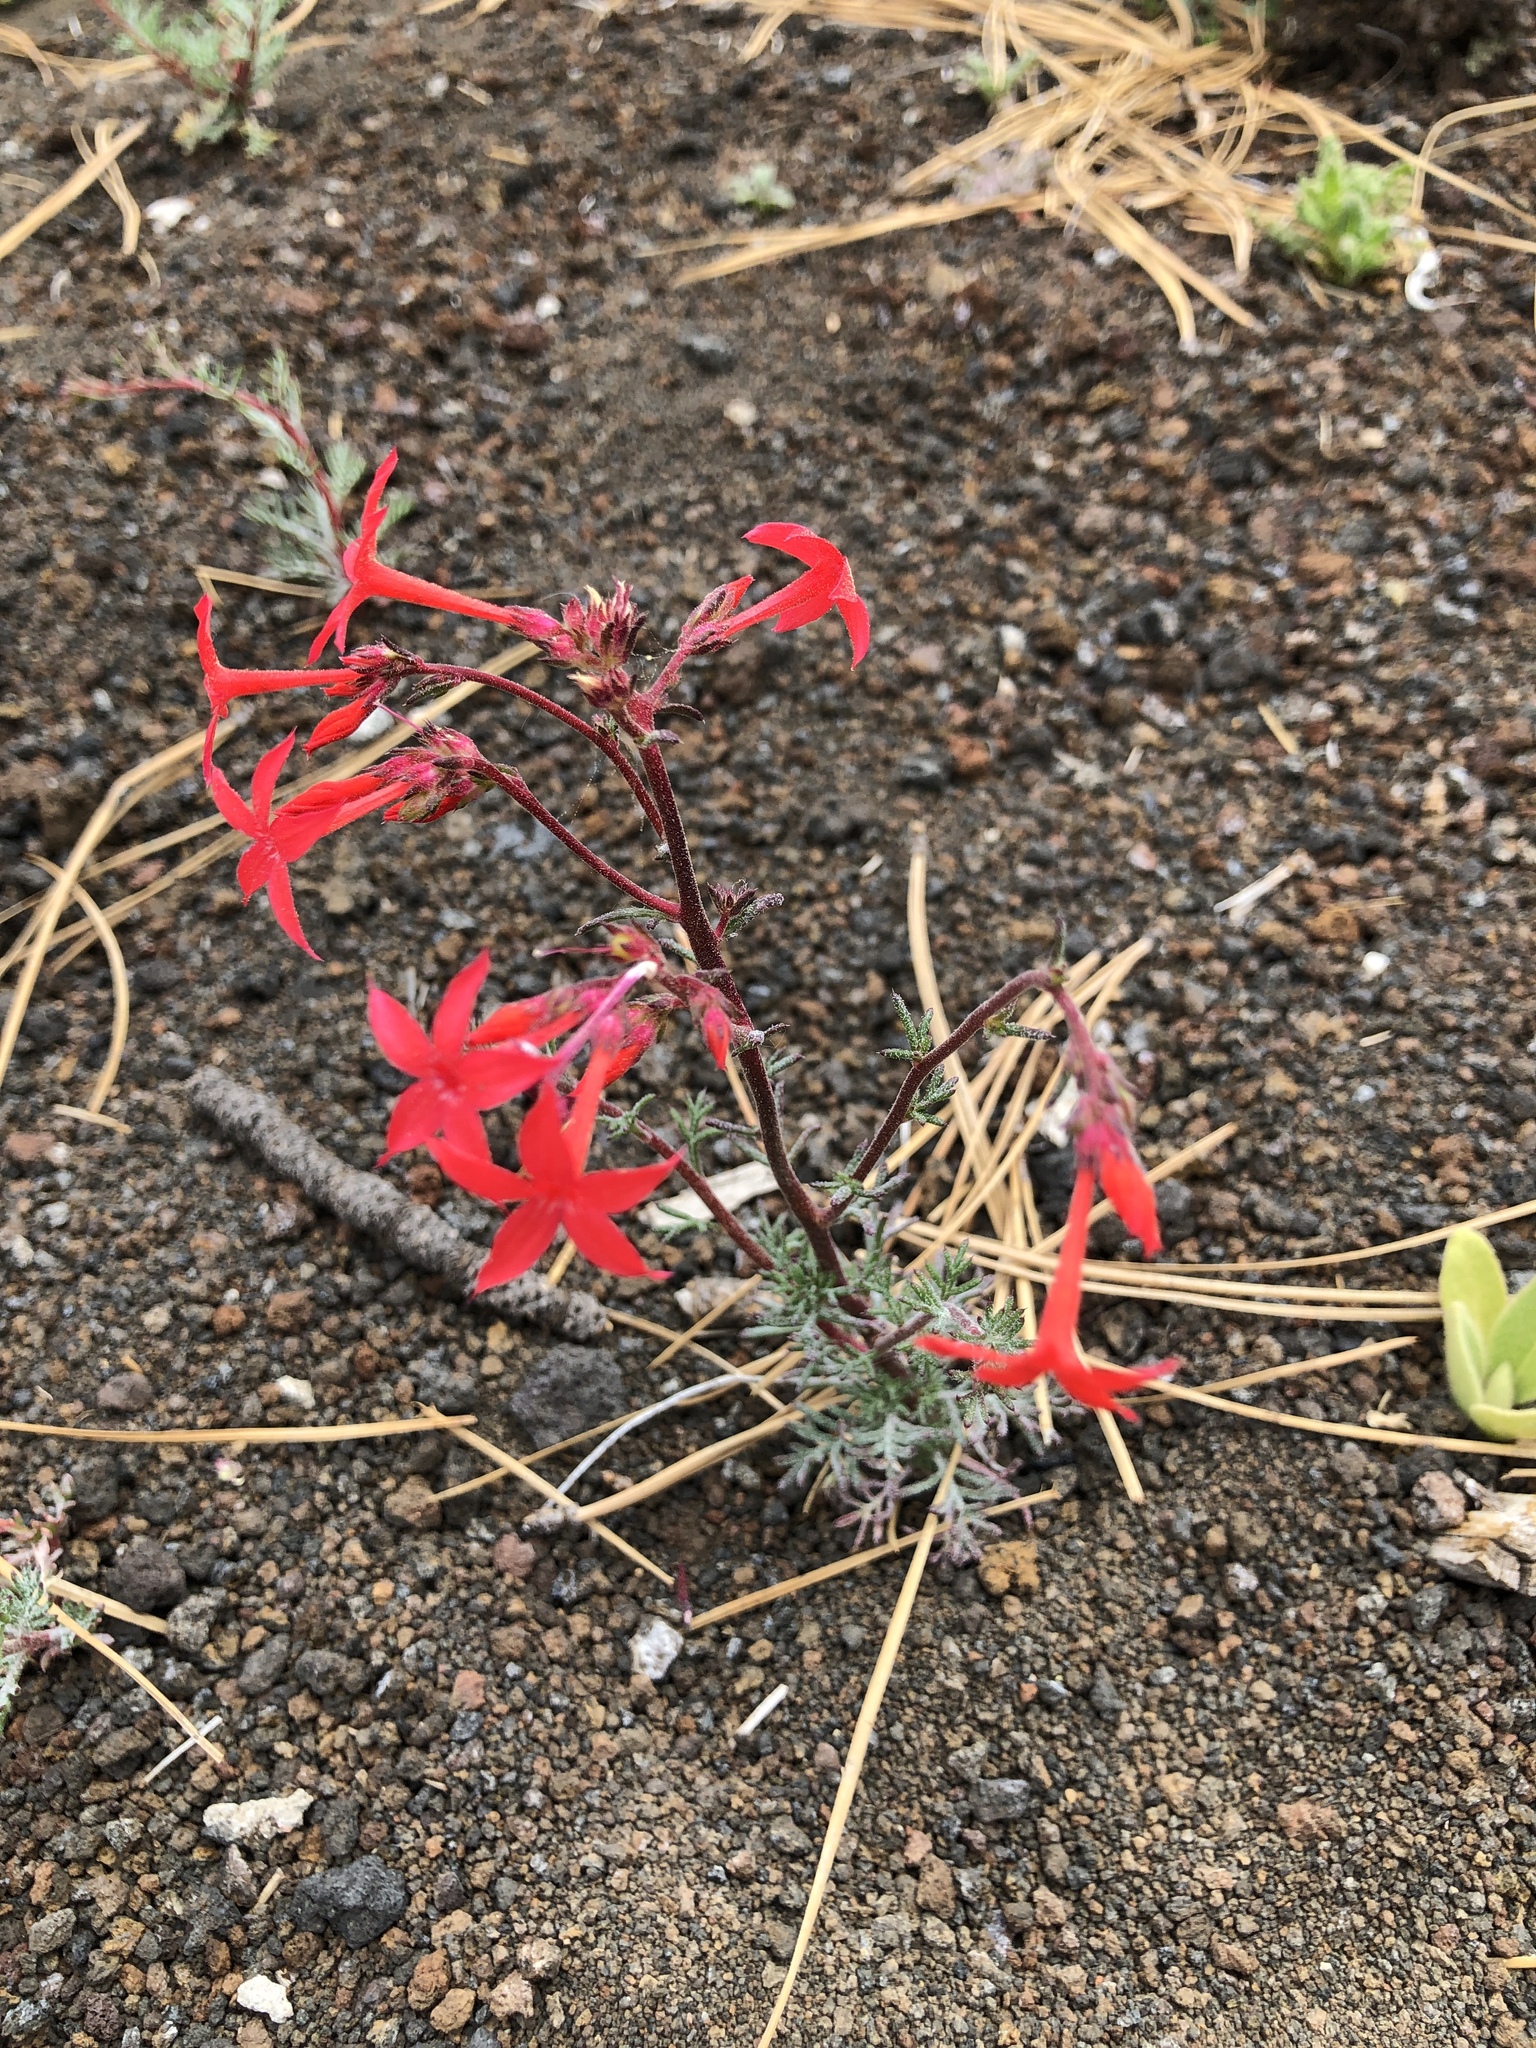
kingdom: Plantae
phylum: Tracheophyta
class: Magnoliopsida
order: Ericales
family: Polemoniaceae
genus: Ipomopsis
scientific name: Ipomopsis arizonica
